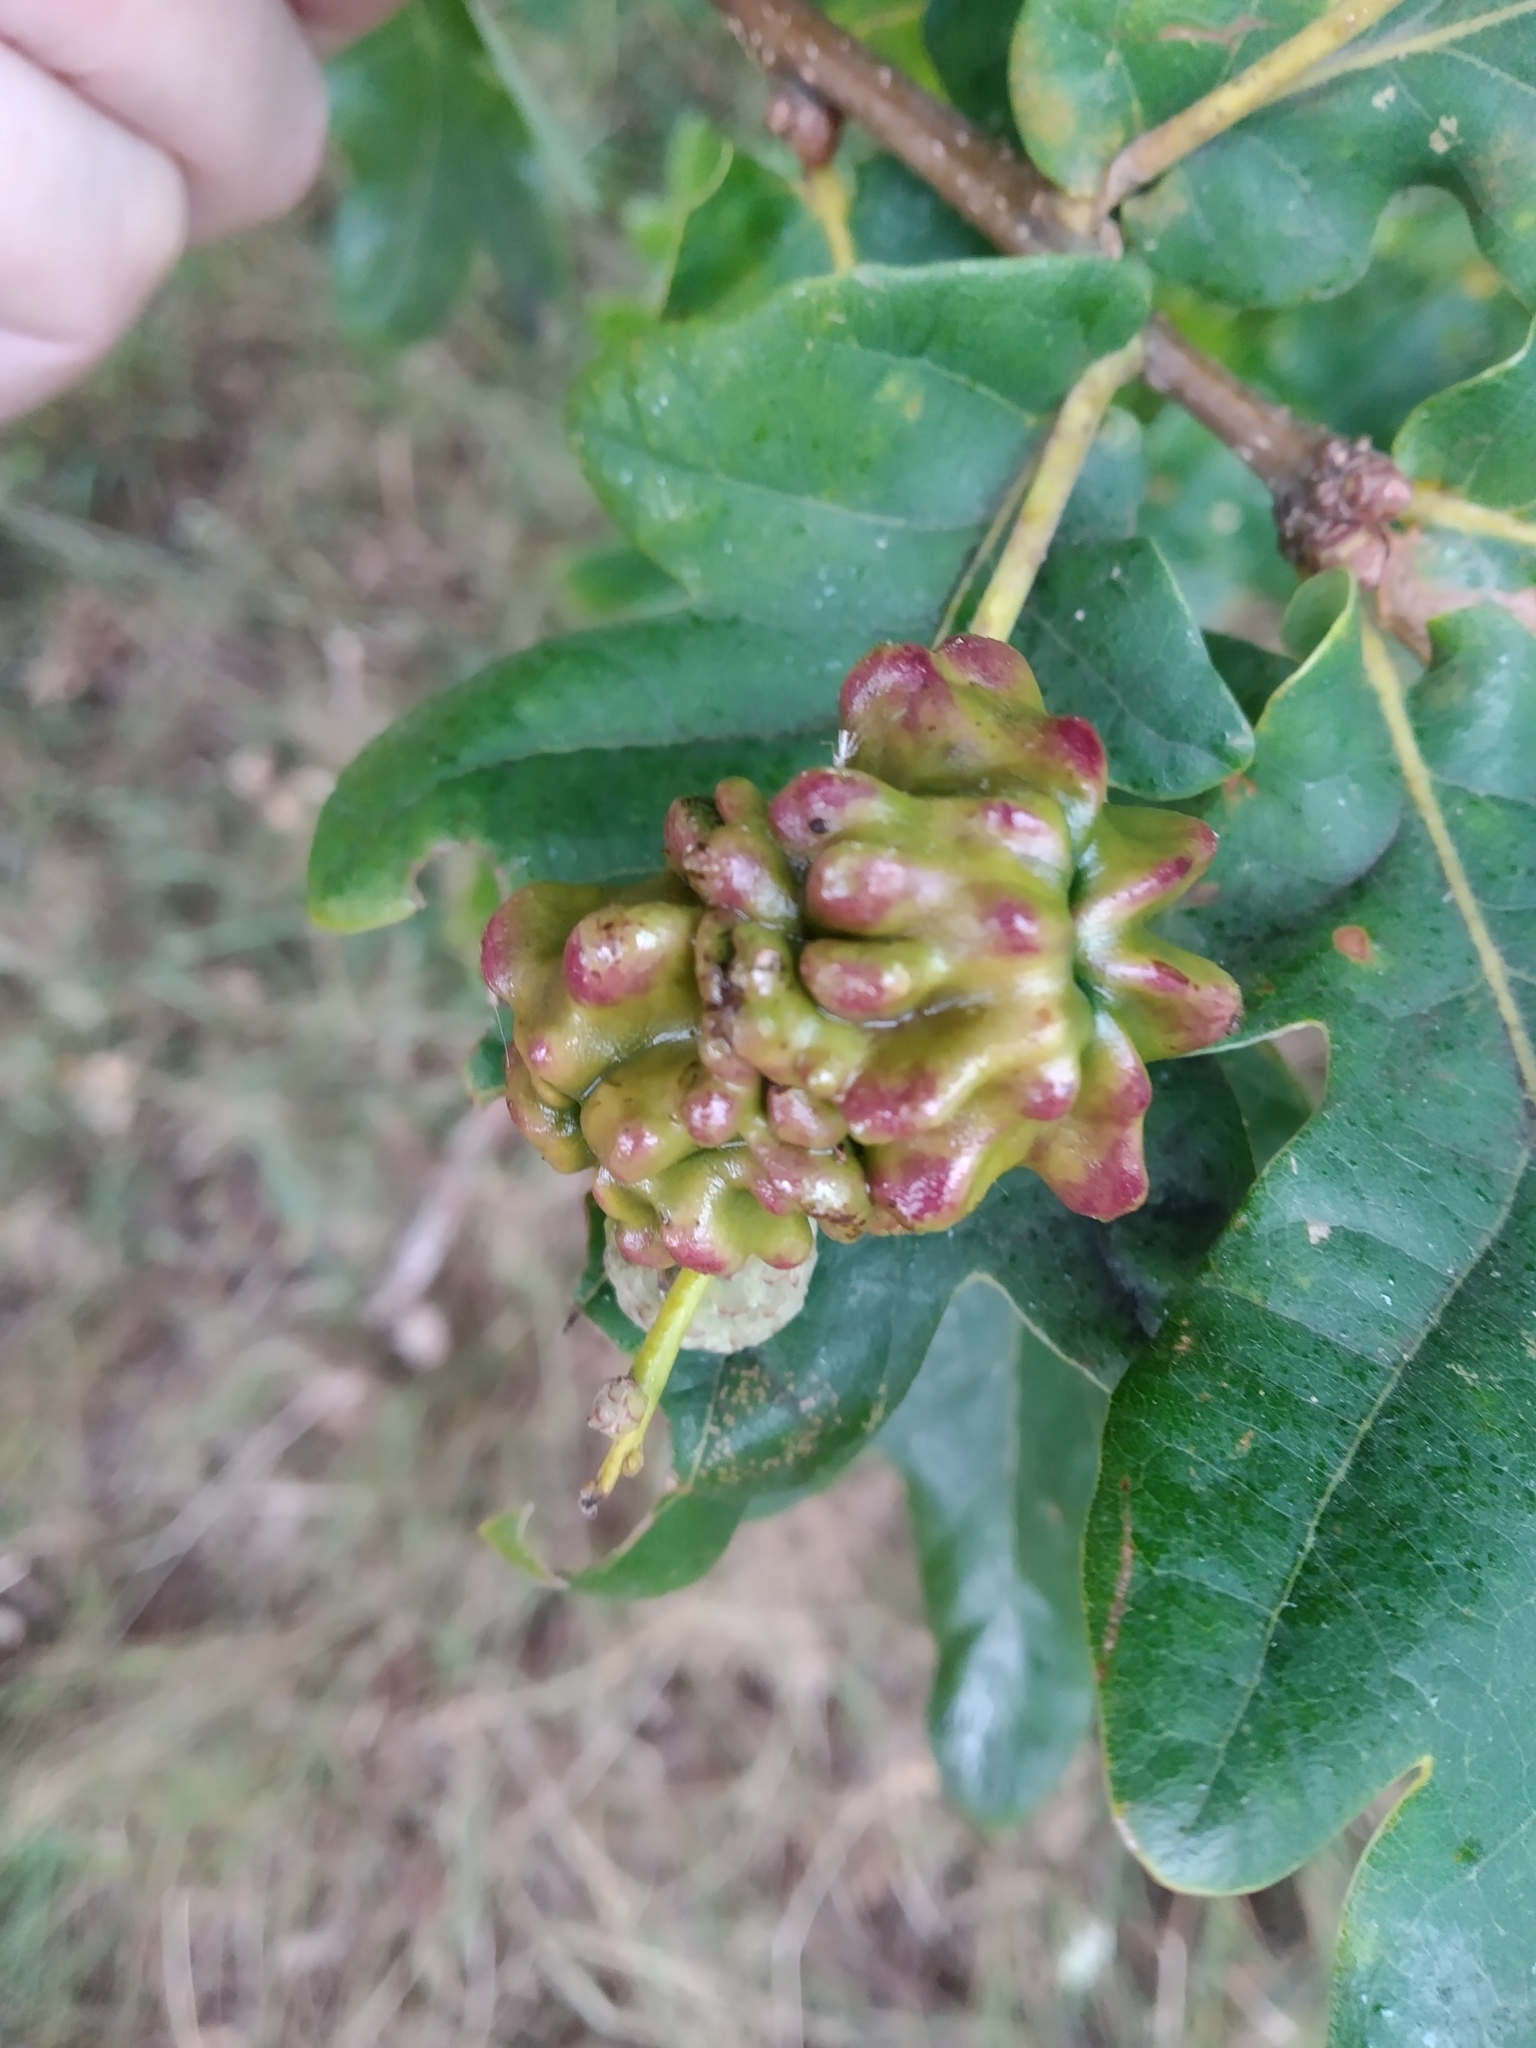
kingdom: Animalia
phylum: Arthropoda
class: Insecta
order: Hymenoptera
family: Cynipidae
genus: Andricus
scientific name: Andricus quercuscalicis
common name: Knopper gall
